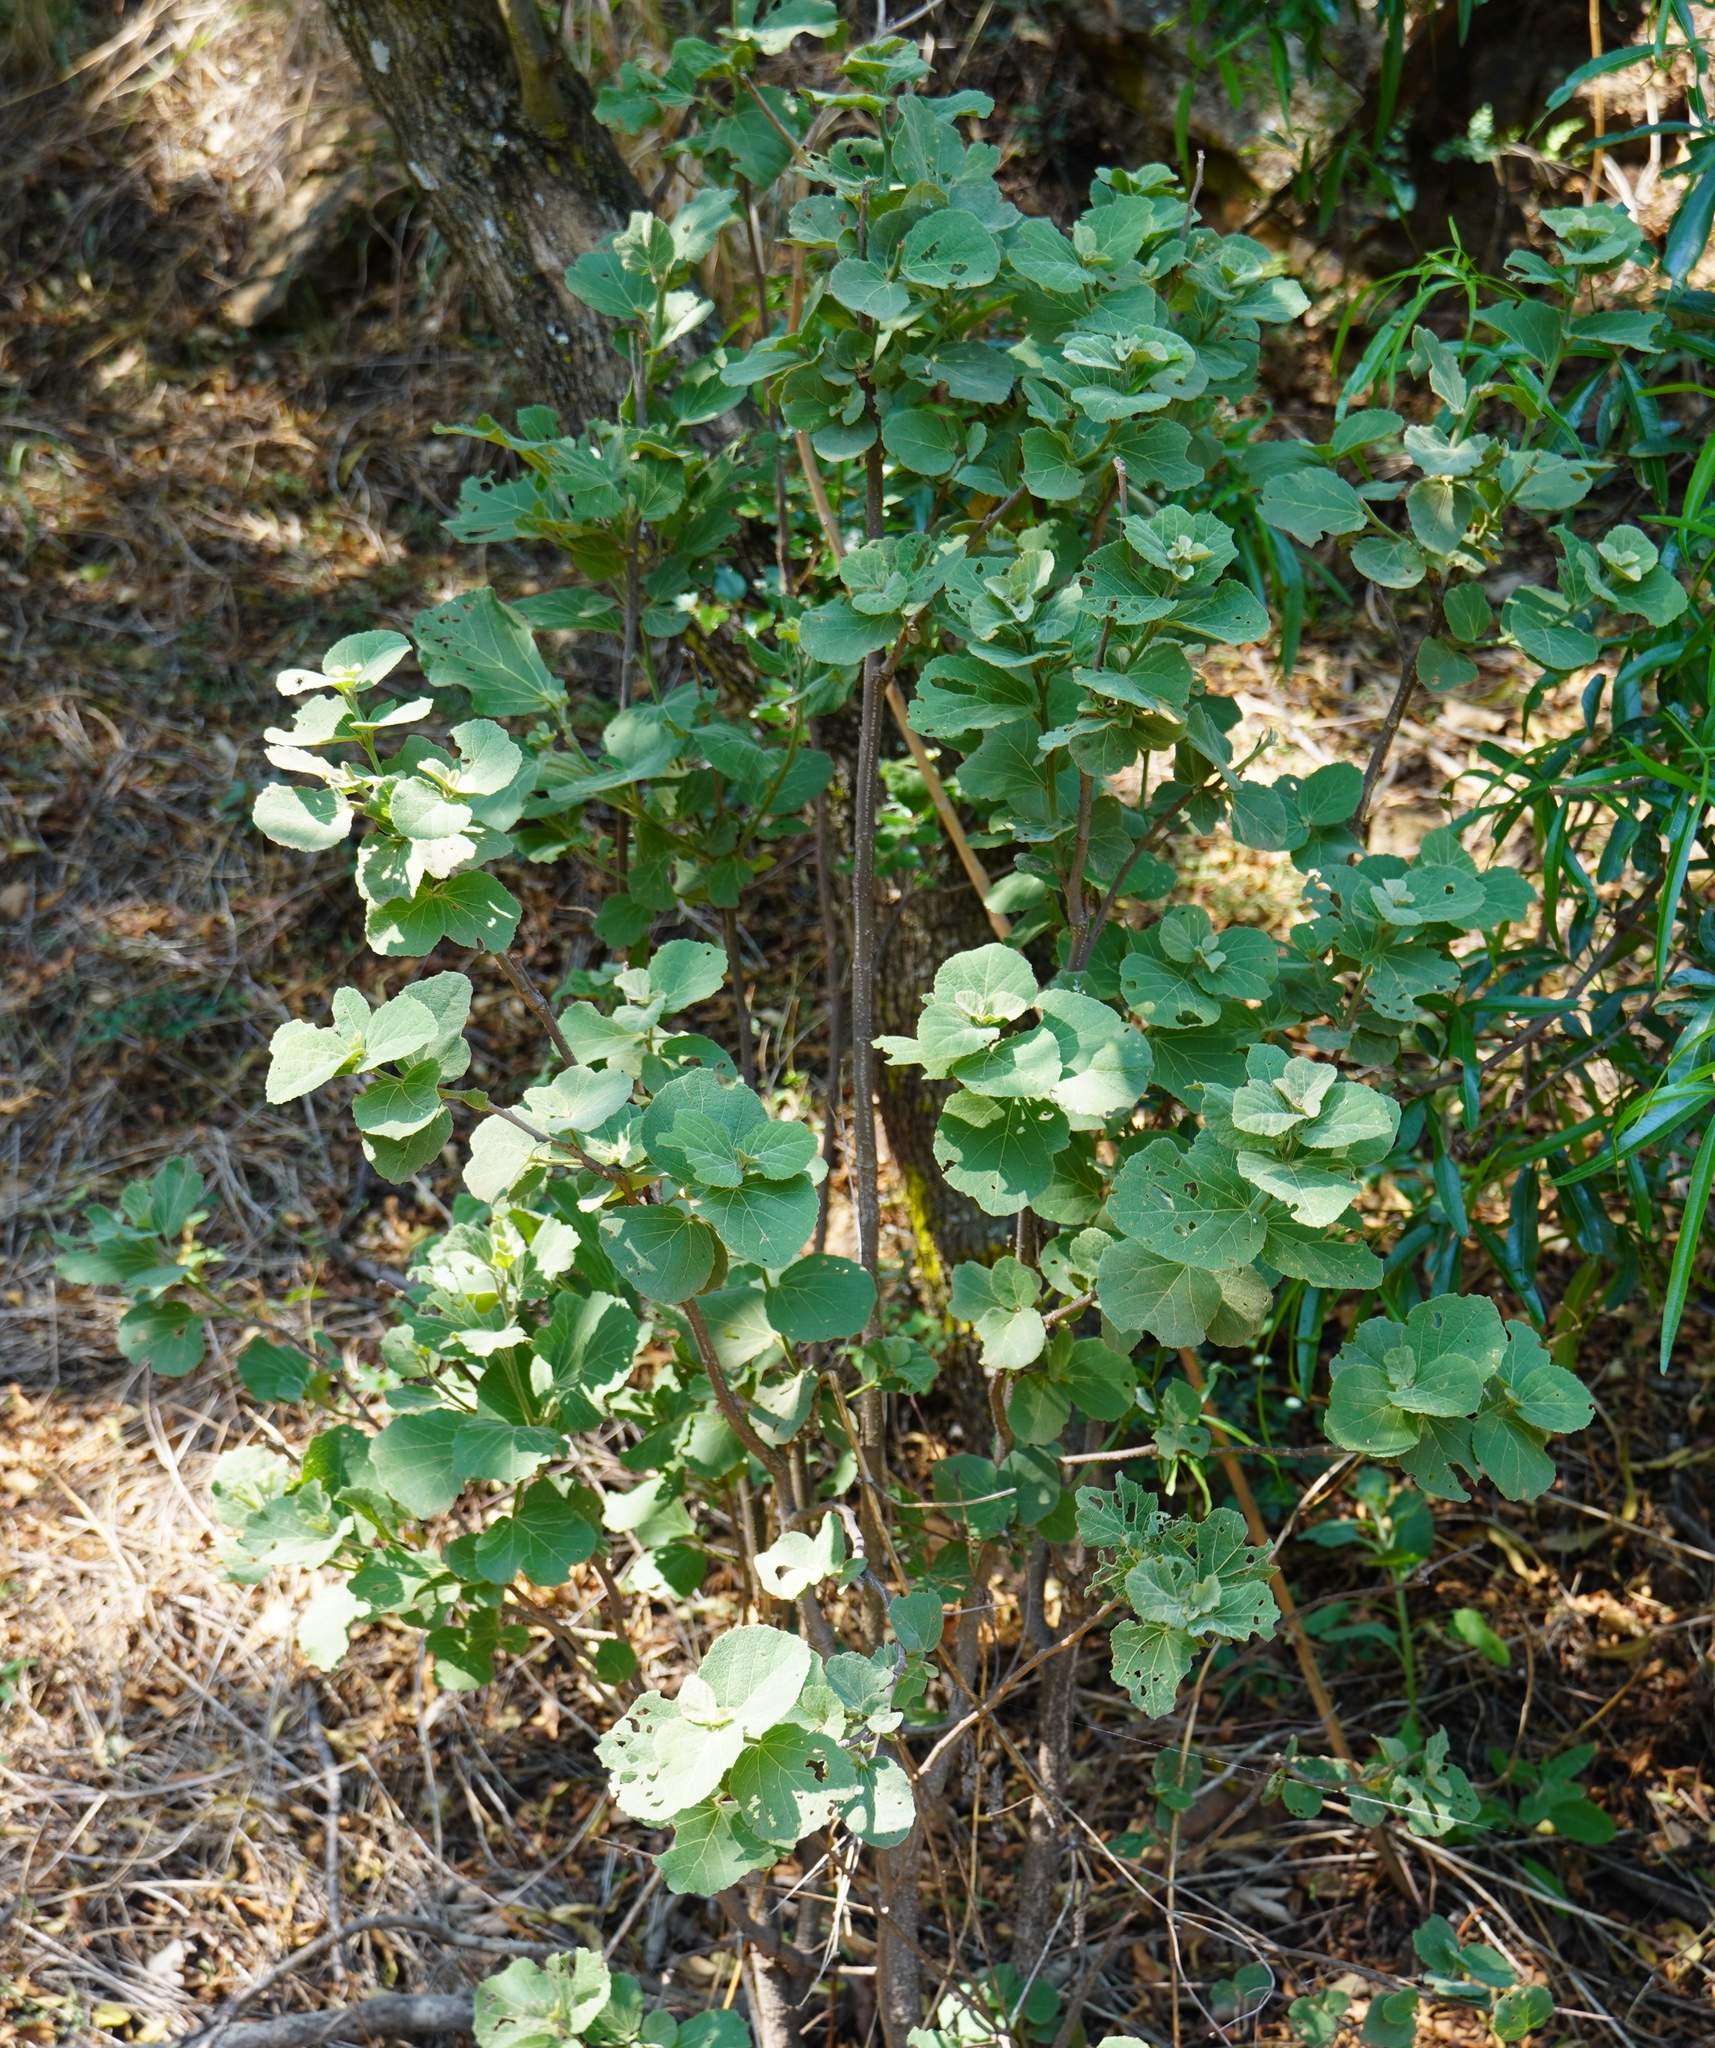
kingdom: Plantae
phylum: Tracheophyta
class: Magnoliopsida
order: Malvales
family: Malvaceae
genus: Dombeya
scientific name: Dombeya rotundifolia
